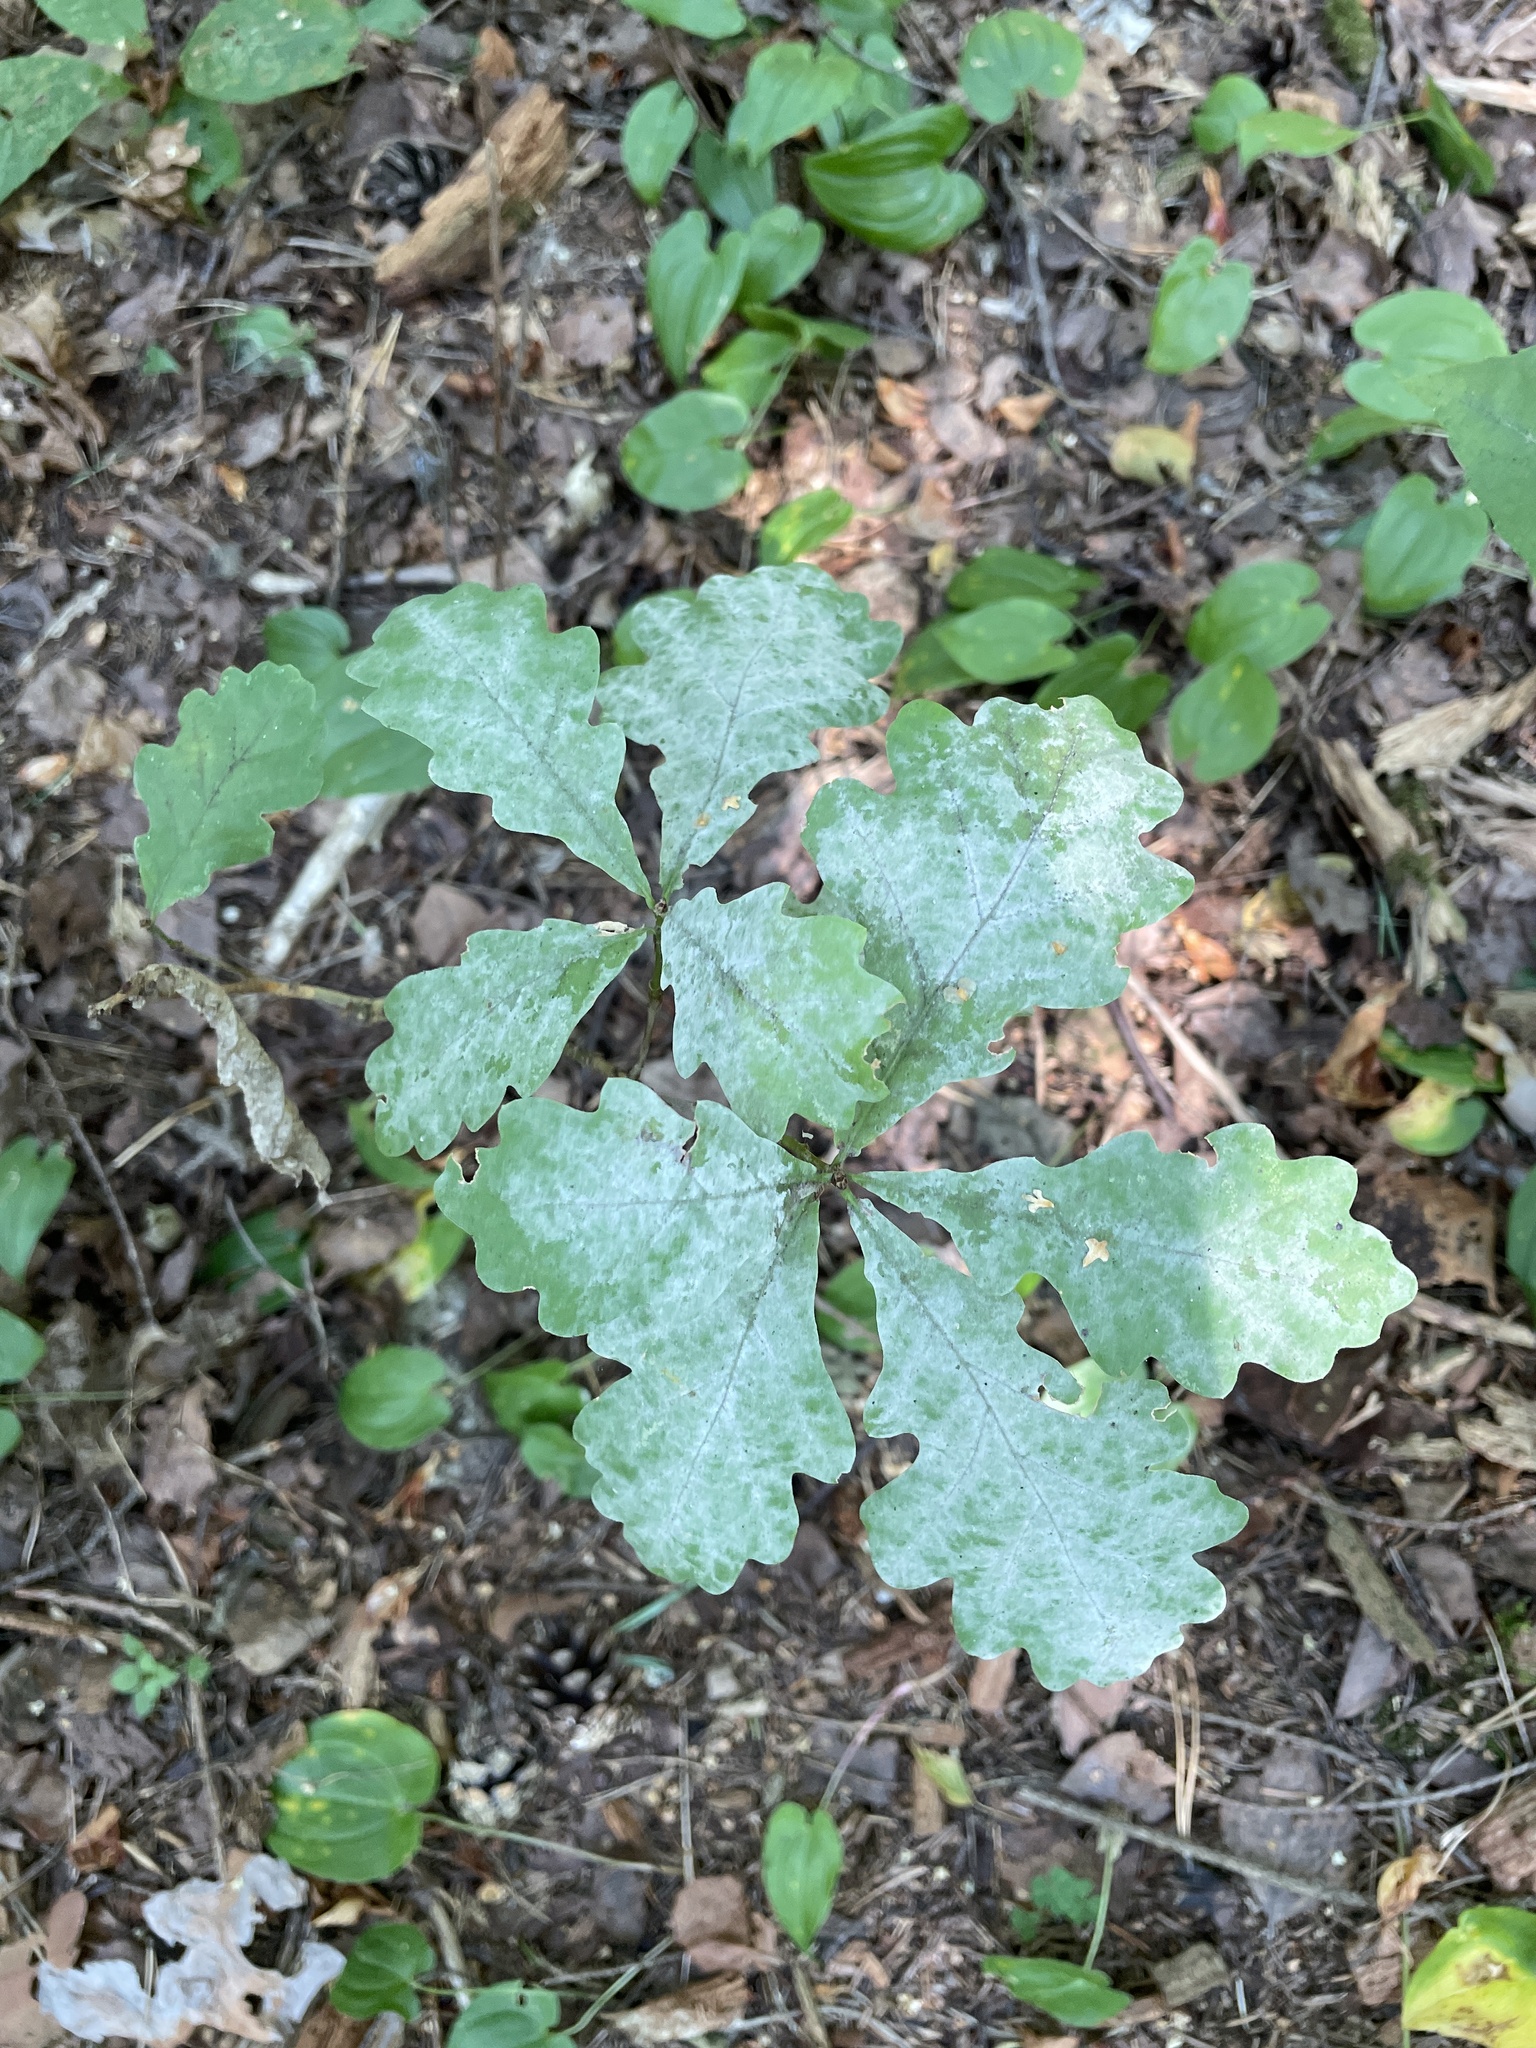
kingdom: Plantae
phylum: Tracheophyta
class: Magnoliopsida
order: Fagales
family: Fagaceae
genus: Quercus
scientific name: Quercus robur
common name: Pedunculate oak
